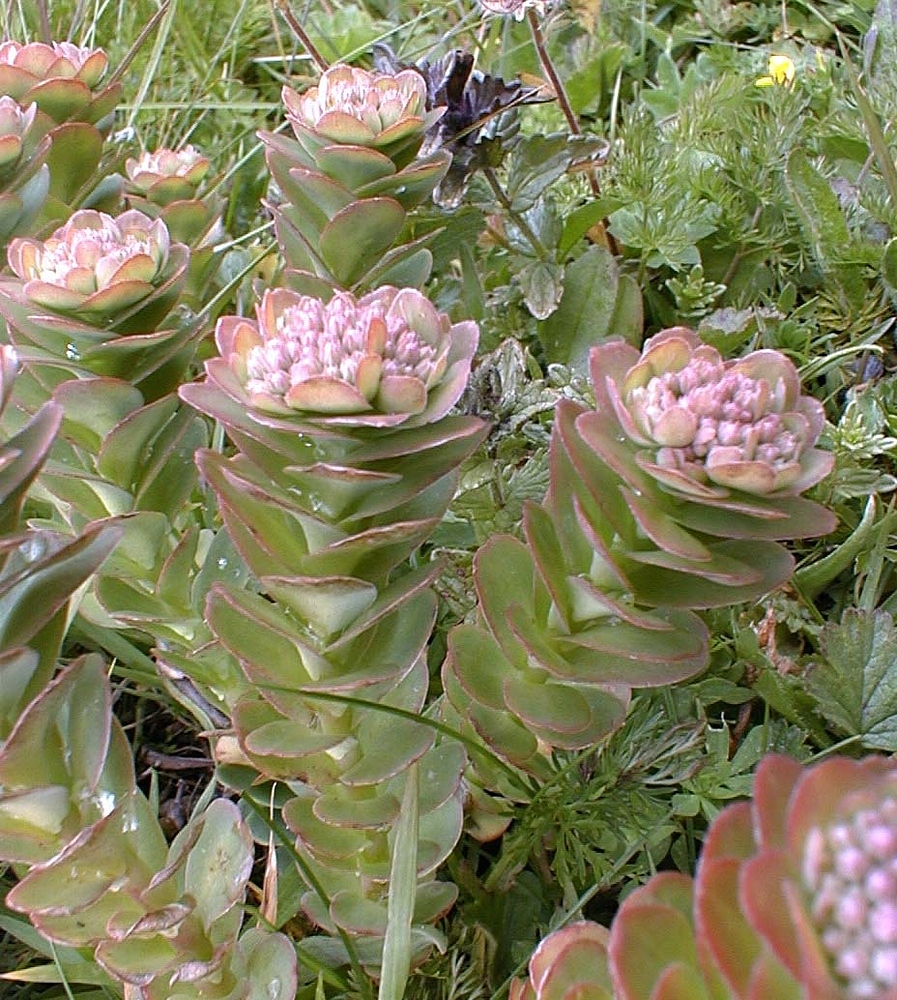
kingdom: Plantae
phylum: Tracheophyta
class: Magnoliopsida
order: Saxifragales
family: Crassulaceae
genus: Hylotelephium
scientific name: Hylotelephium anacampseros
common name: Love-restorer
